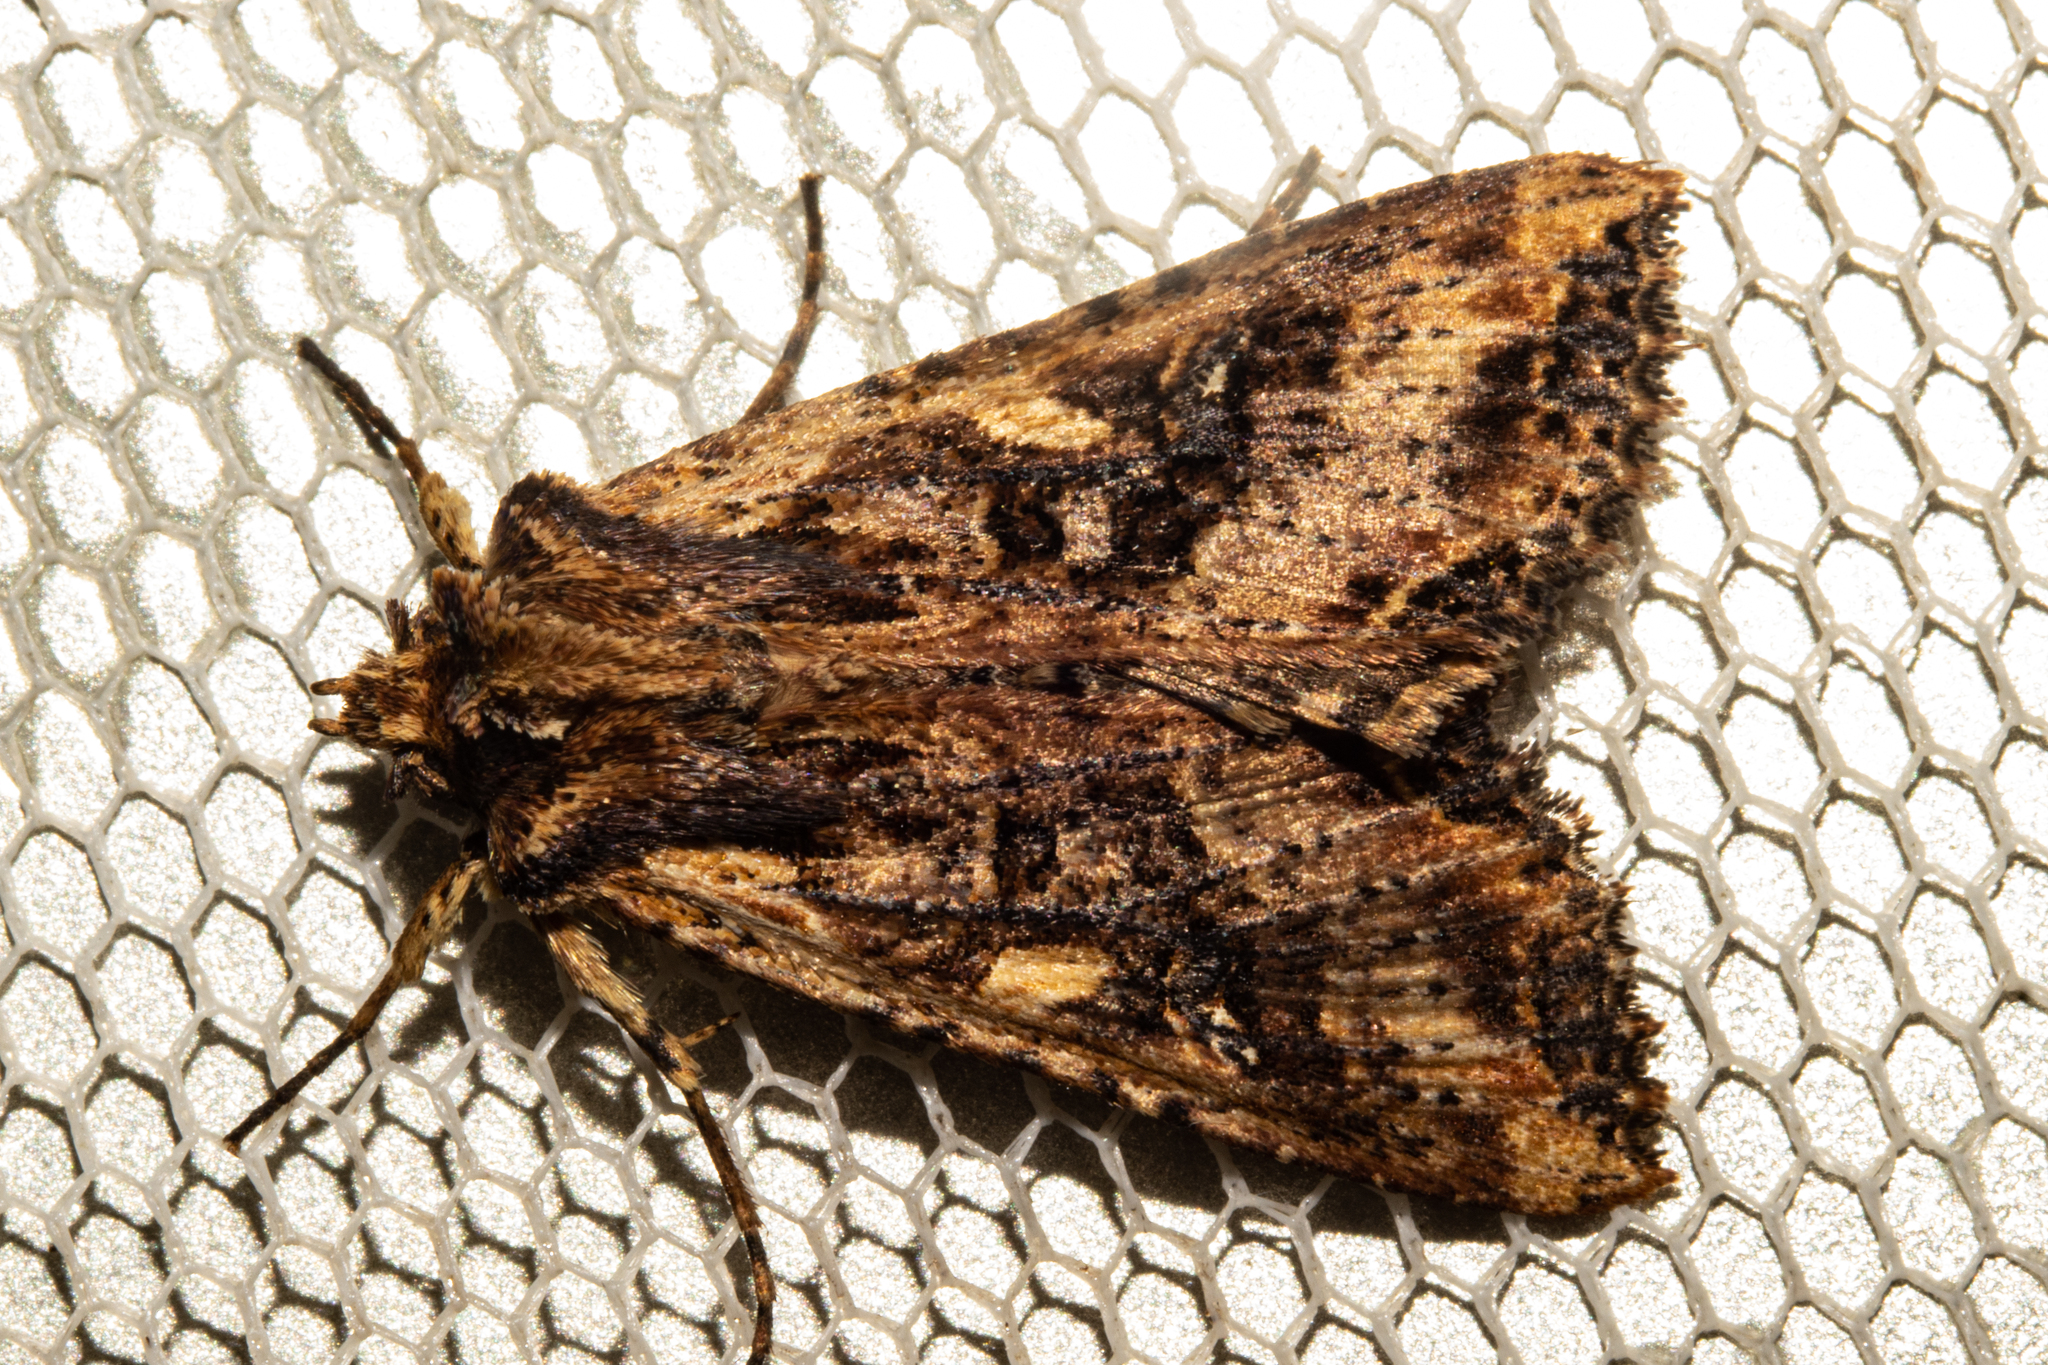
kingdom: Animalia
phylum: Arthropoda
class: Insecta
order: Lepidoptera
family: Noctuidae
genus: Meterana
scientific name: Meterana stipata
